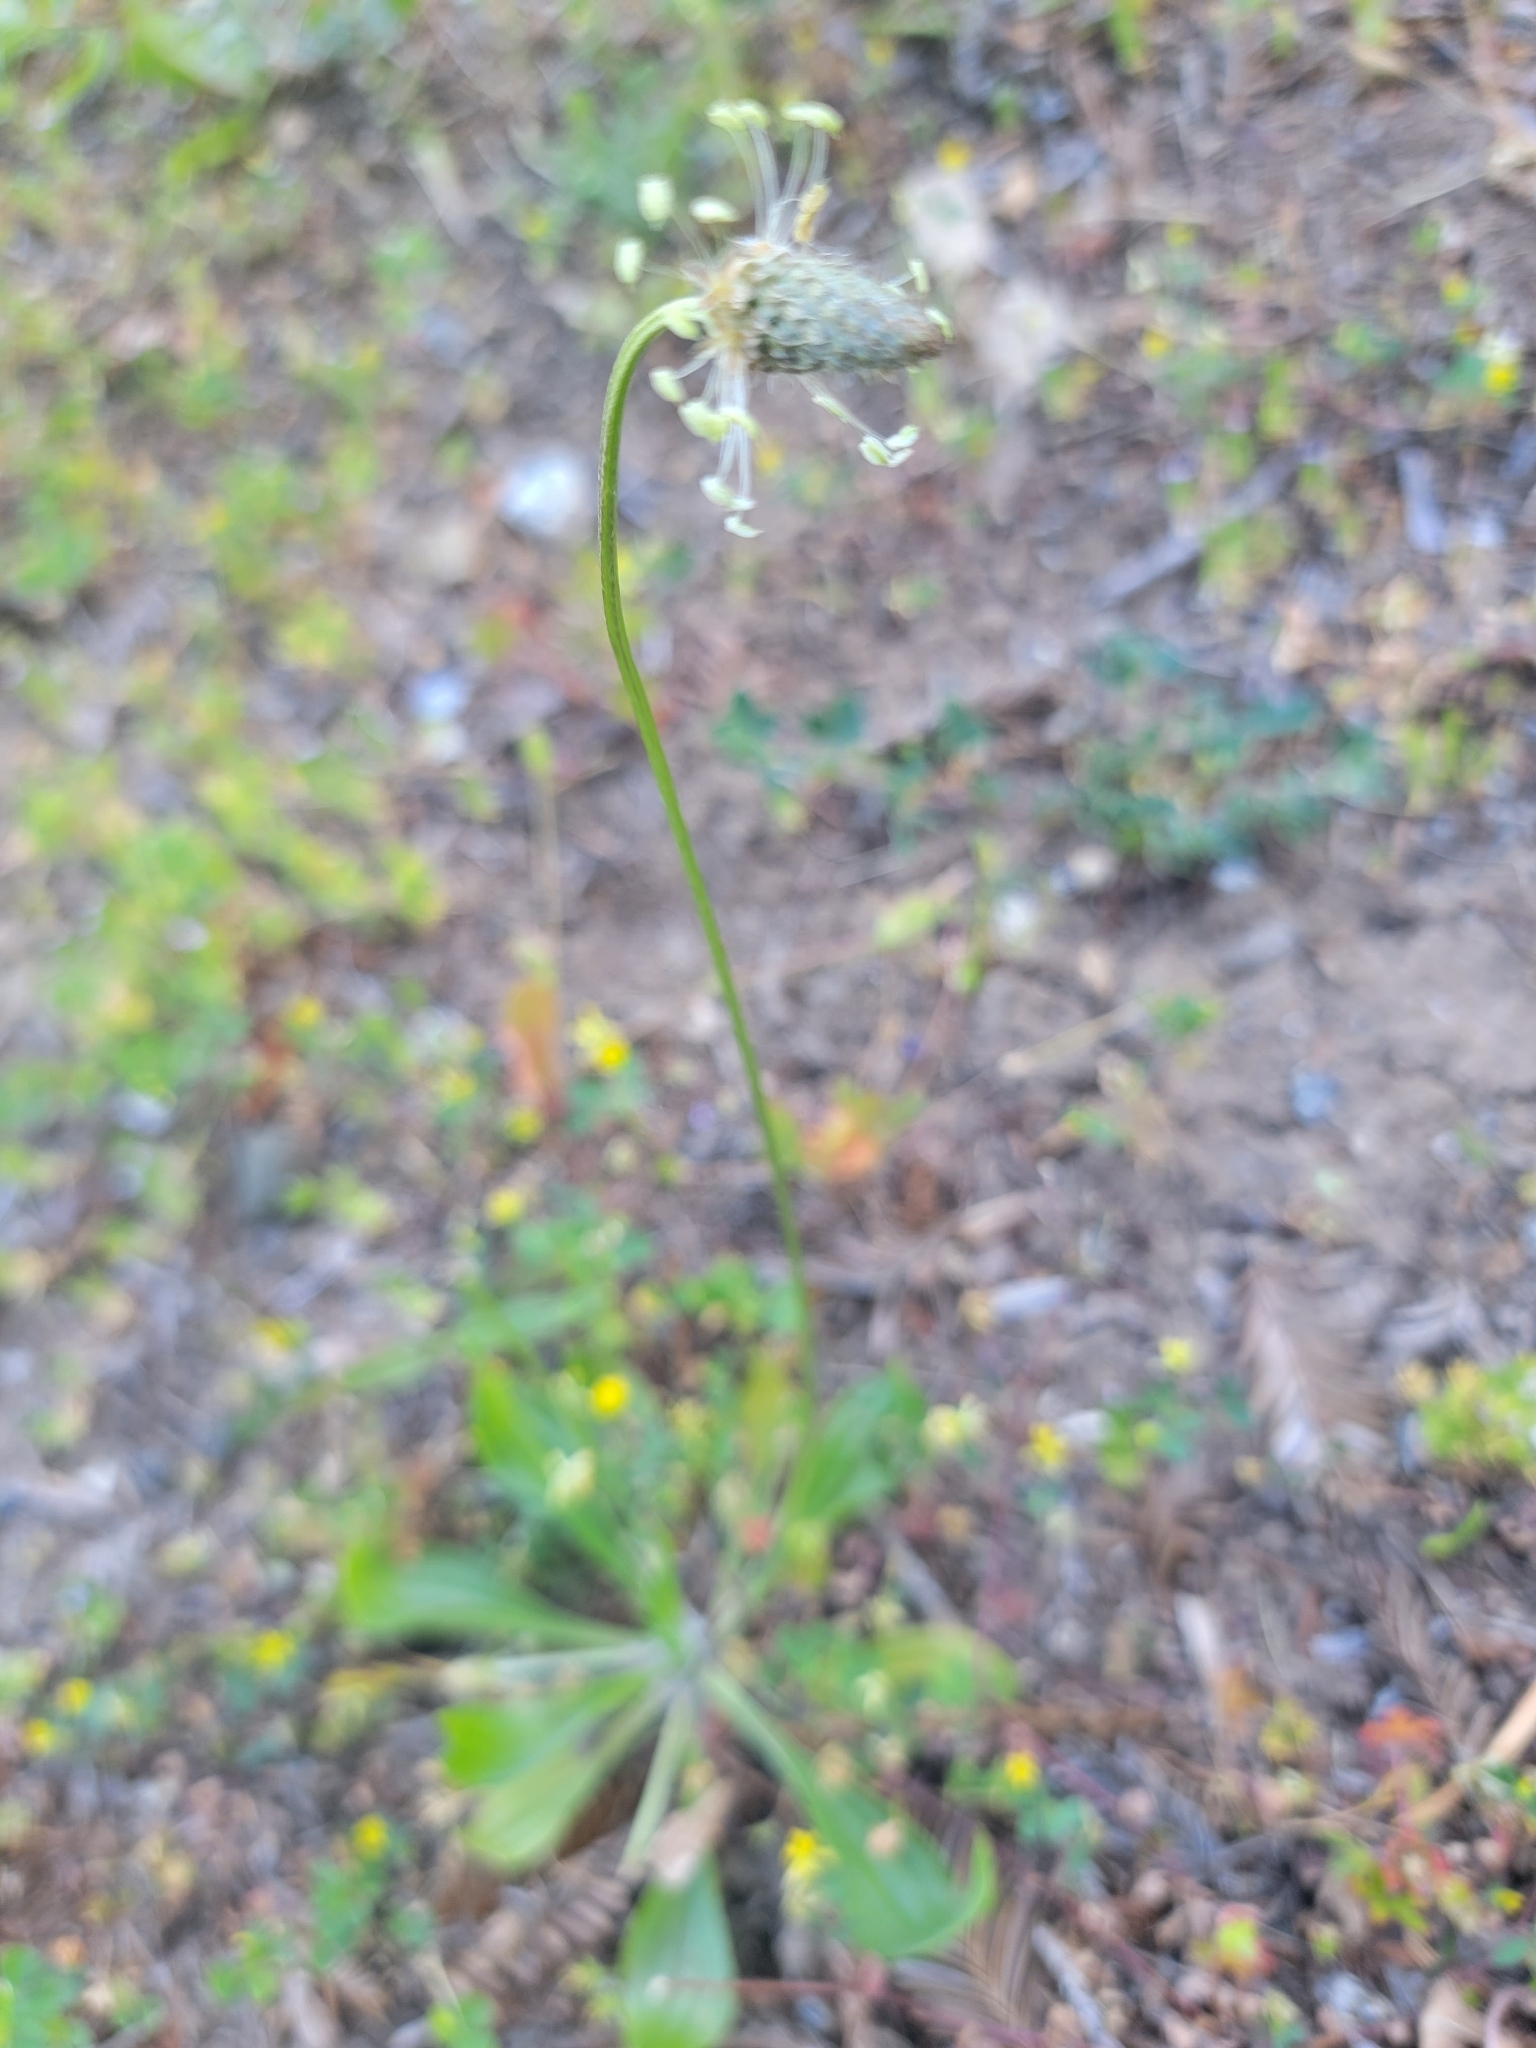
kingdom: Plantae
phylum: Tracheophyta
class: Magnoliopsida
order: Lamiales
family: Plantaginaceae
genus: Plantago
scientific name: Plantago lanceolata
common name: Ribwort plantain
